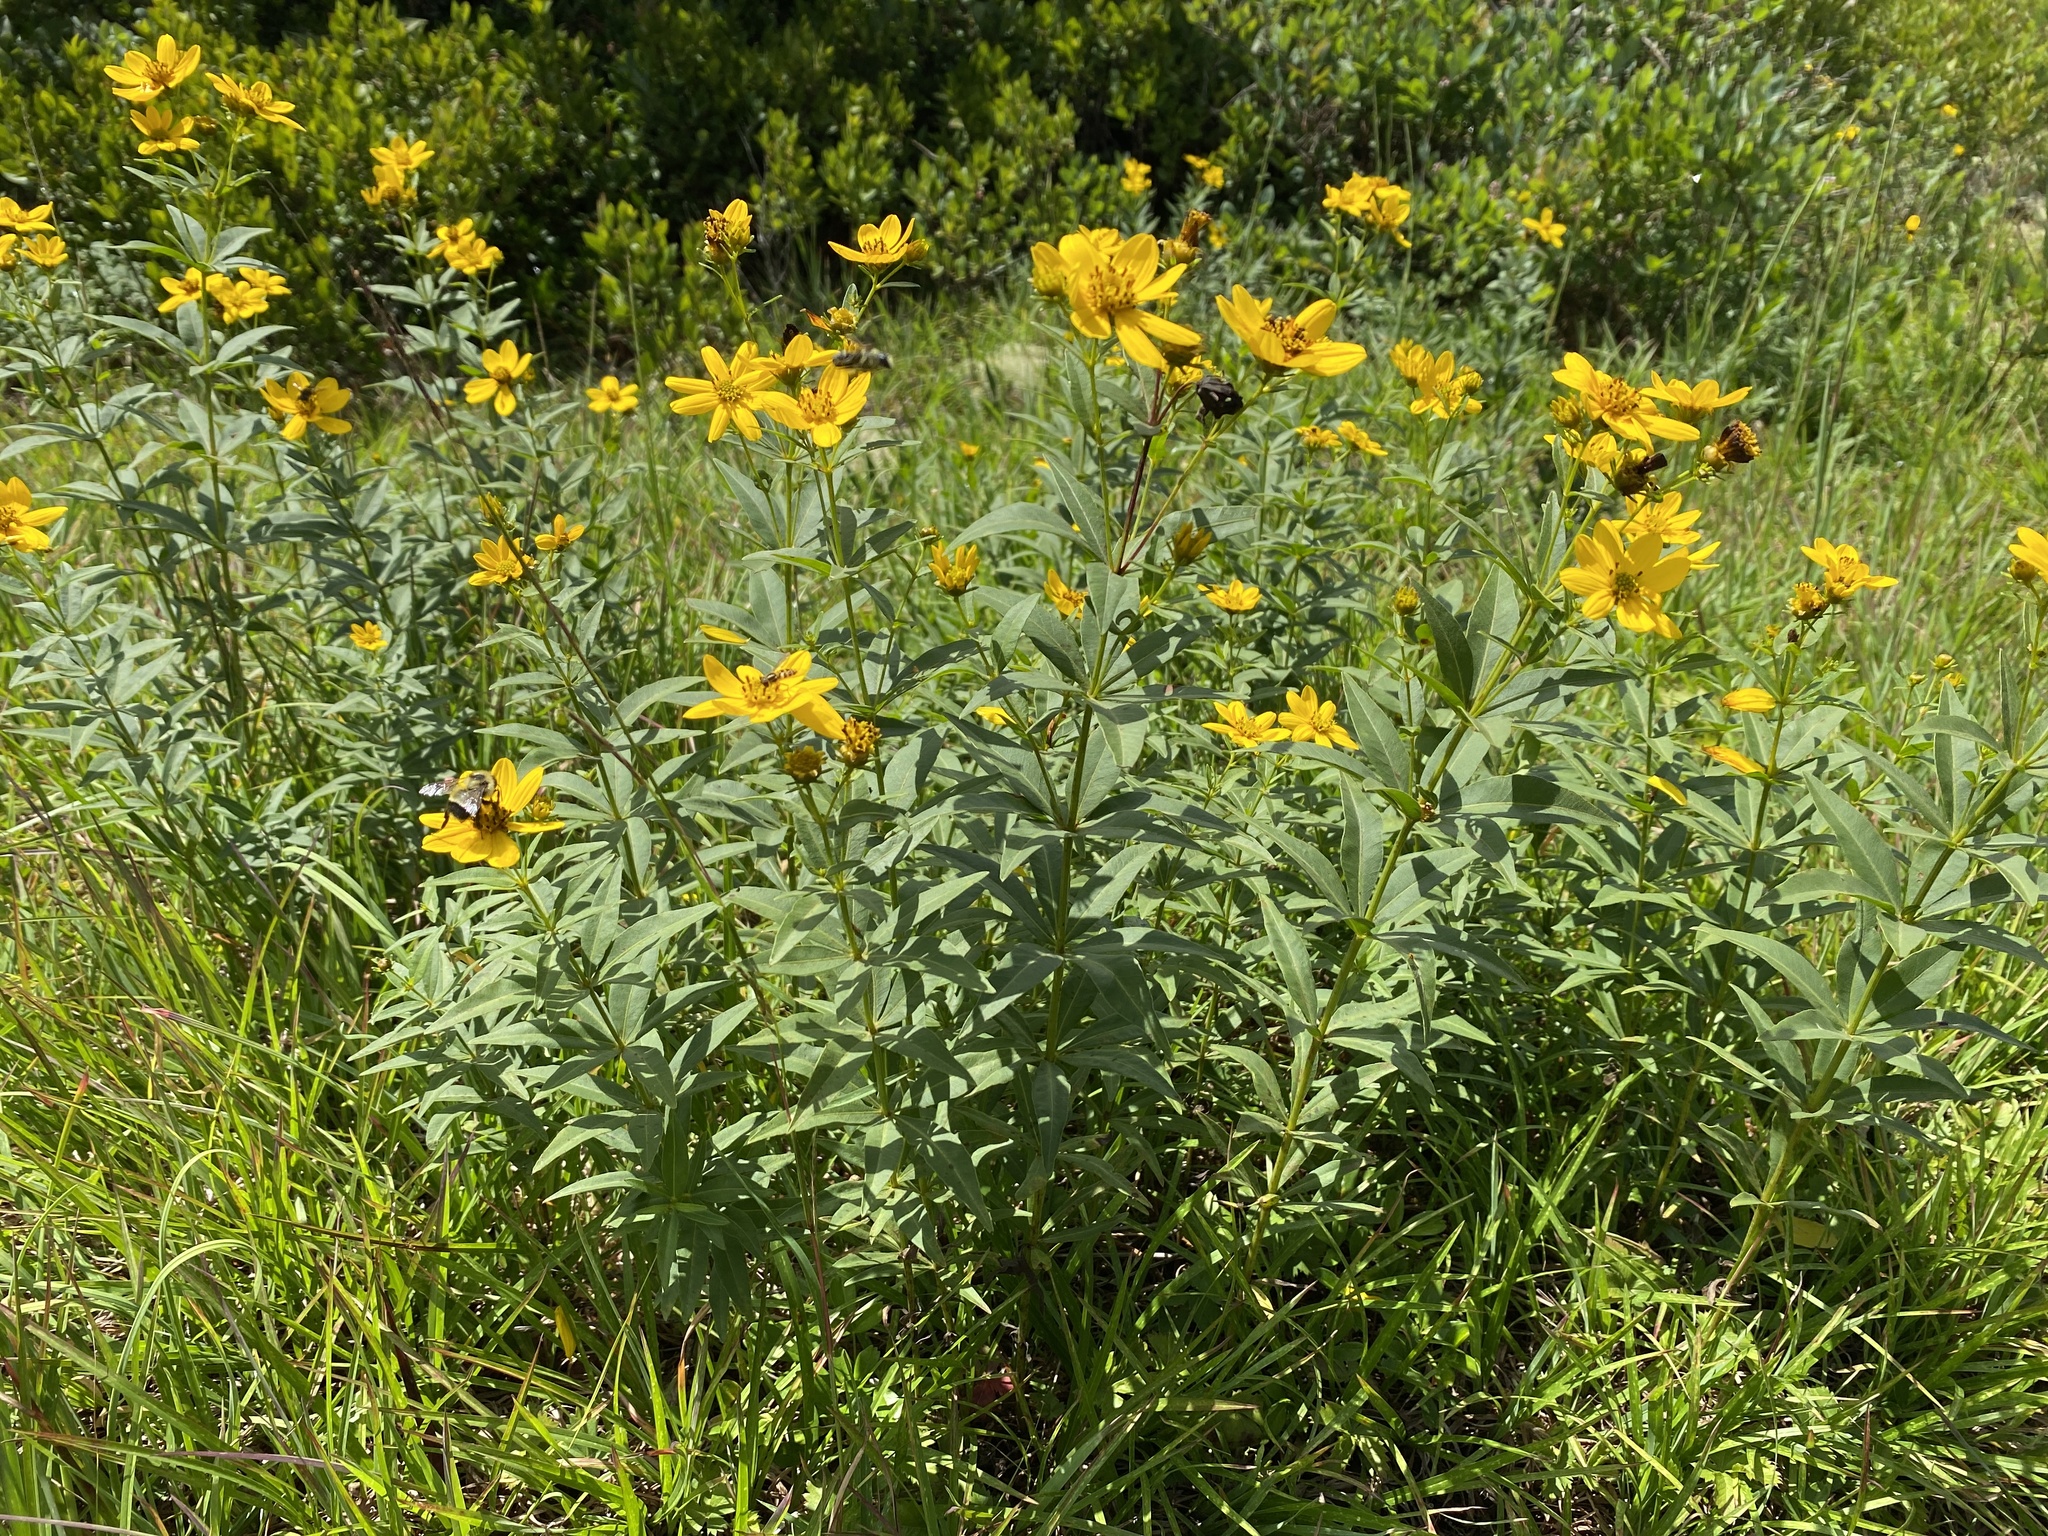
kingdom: Plantae
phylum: Tracheophyta
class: Magnoliopsida
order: Asterales
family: Asteraceae
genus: Coreopsis
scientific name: Coreopsis major
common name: Forest tickseed
